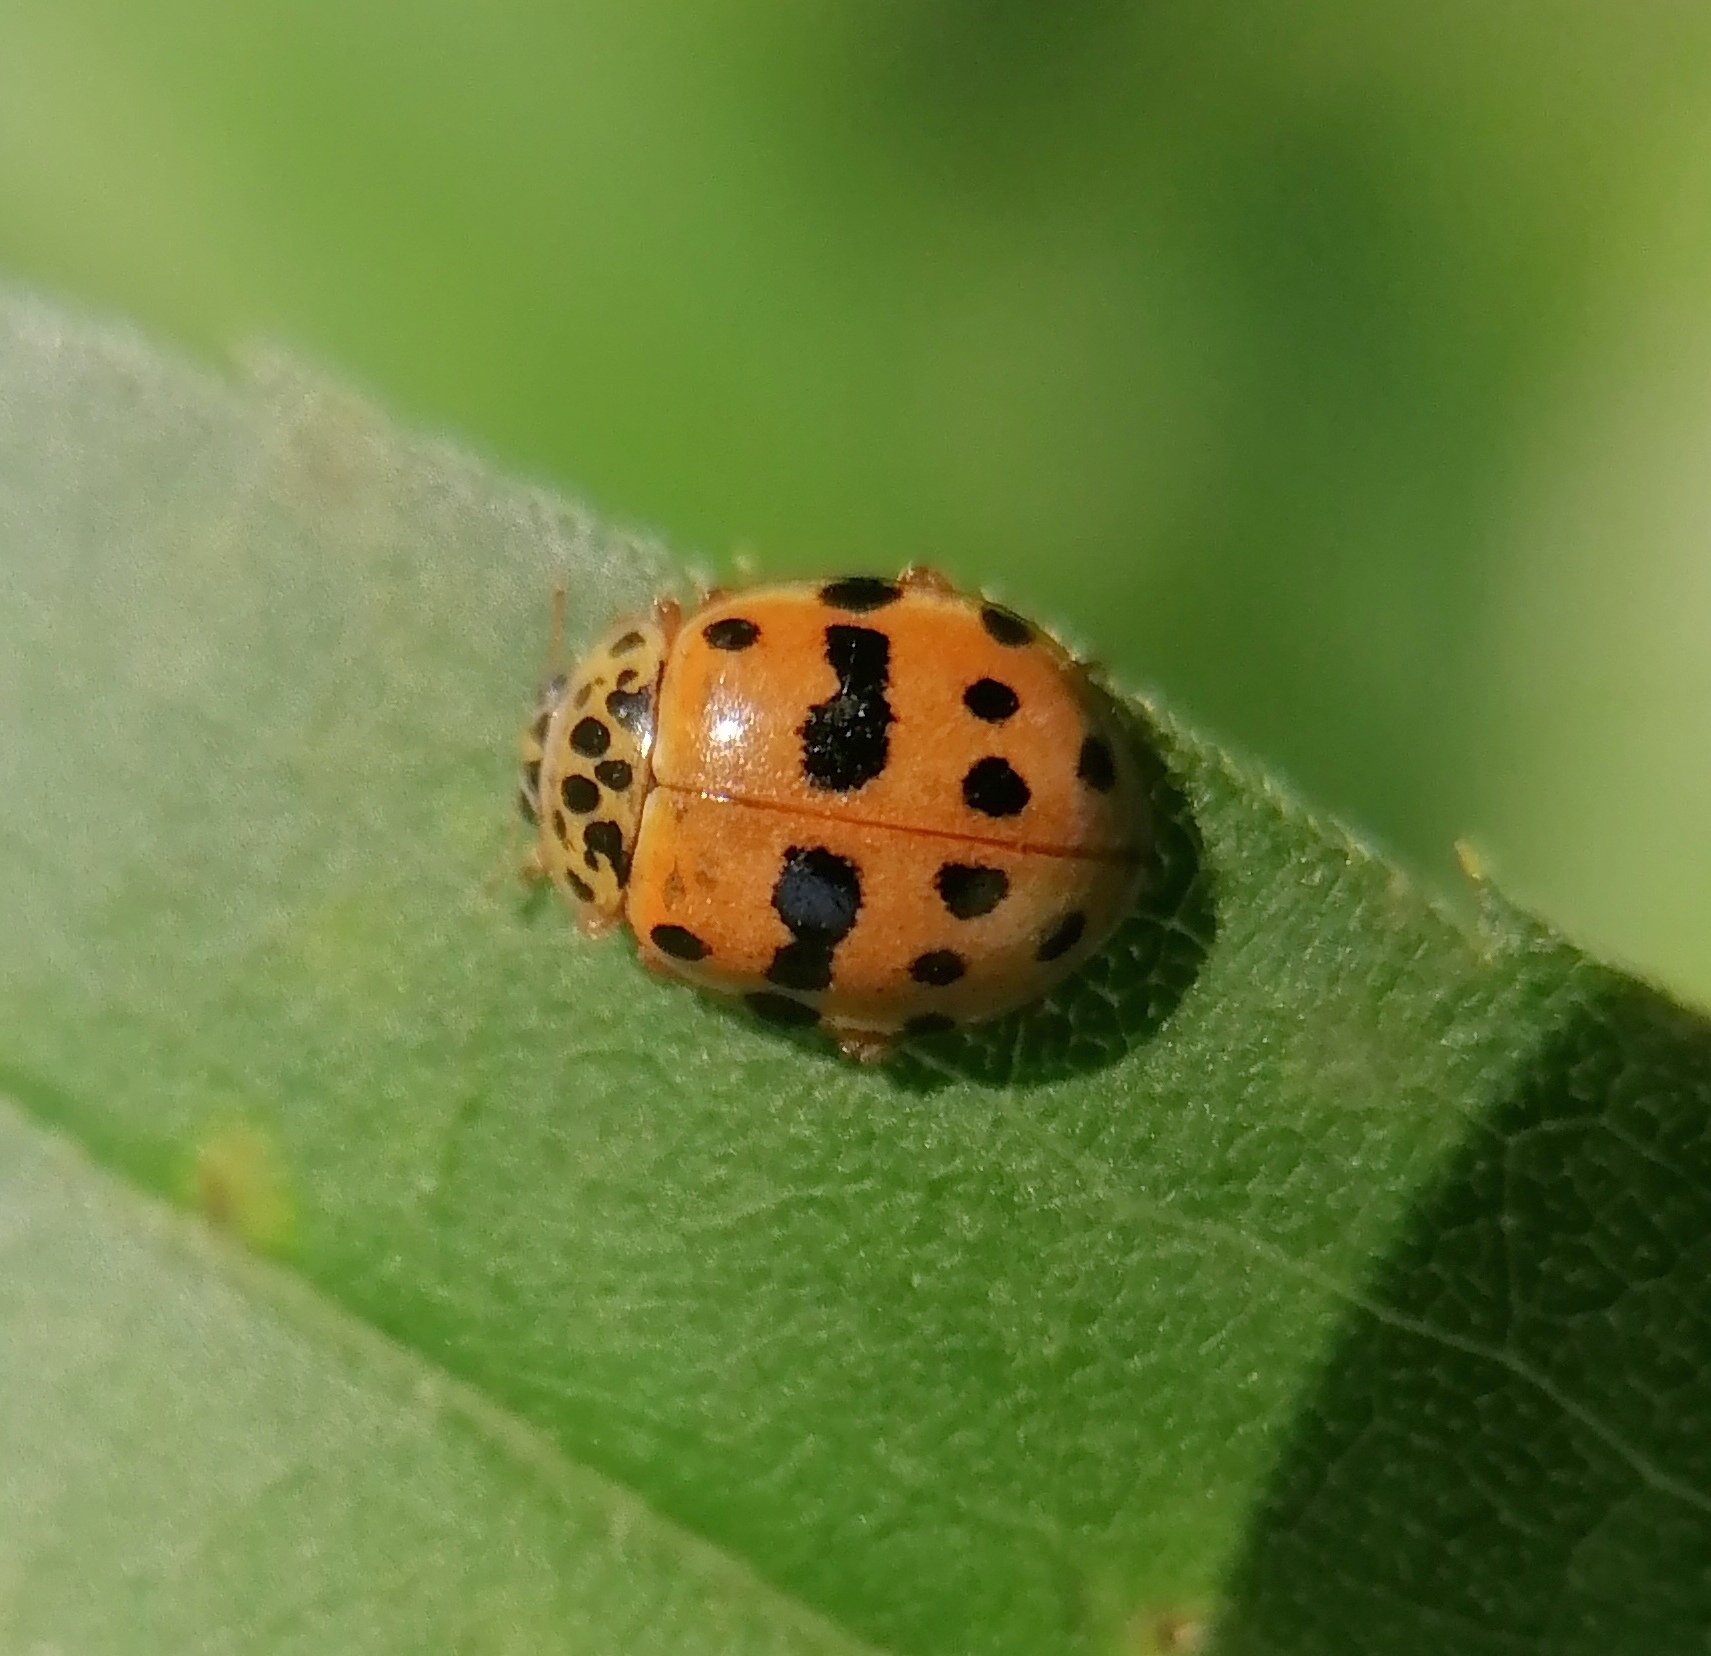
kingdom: Animalia
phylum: Arthropoda
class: Insecta
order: Coleoptera
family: Coccinellidae
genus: Harmonia
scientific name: Harmonia quadripunctata
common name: Cream-streaked ladybird
